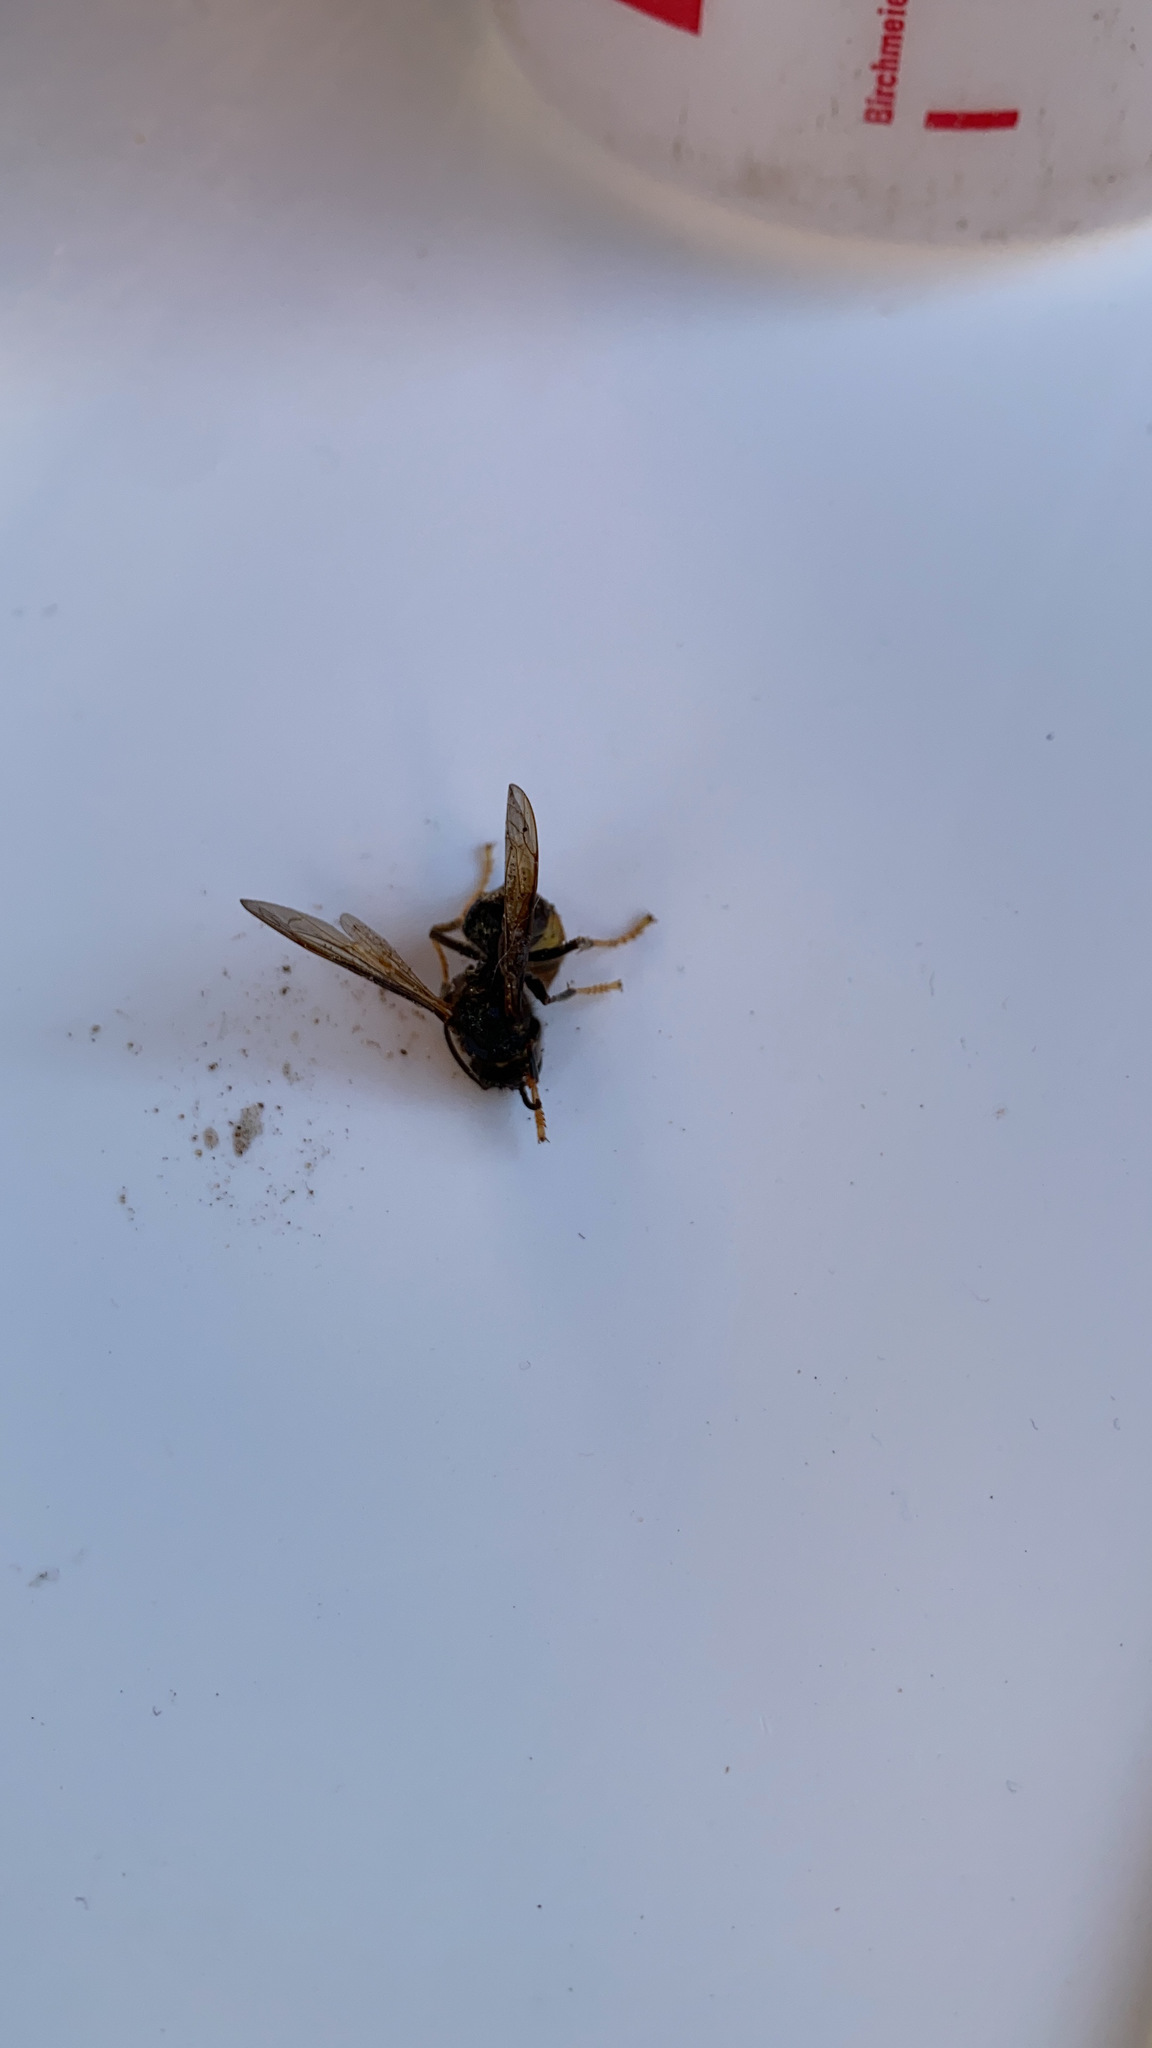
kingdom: Animalia
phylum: Arthropoda
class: Insecta
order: Hymenoptera
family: Vespidae
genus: Vespa
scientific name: Vespa velutina
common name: Asian hornet
